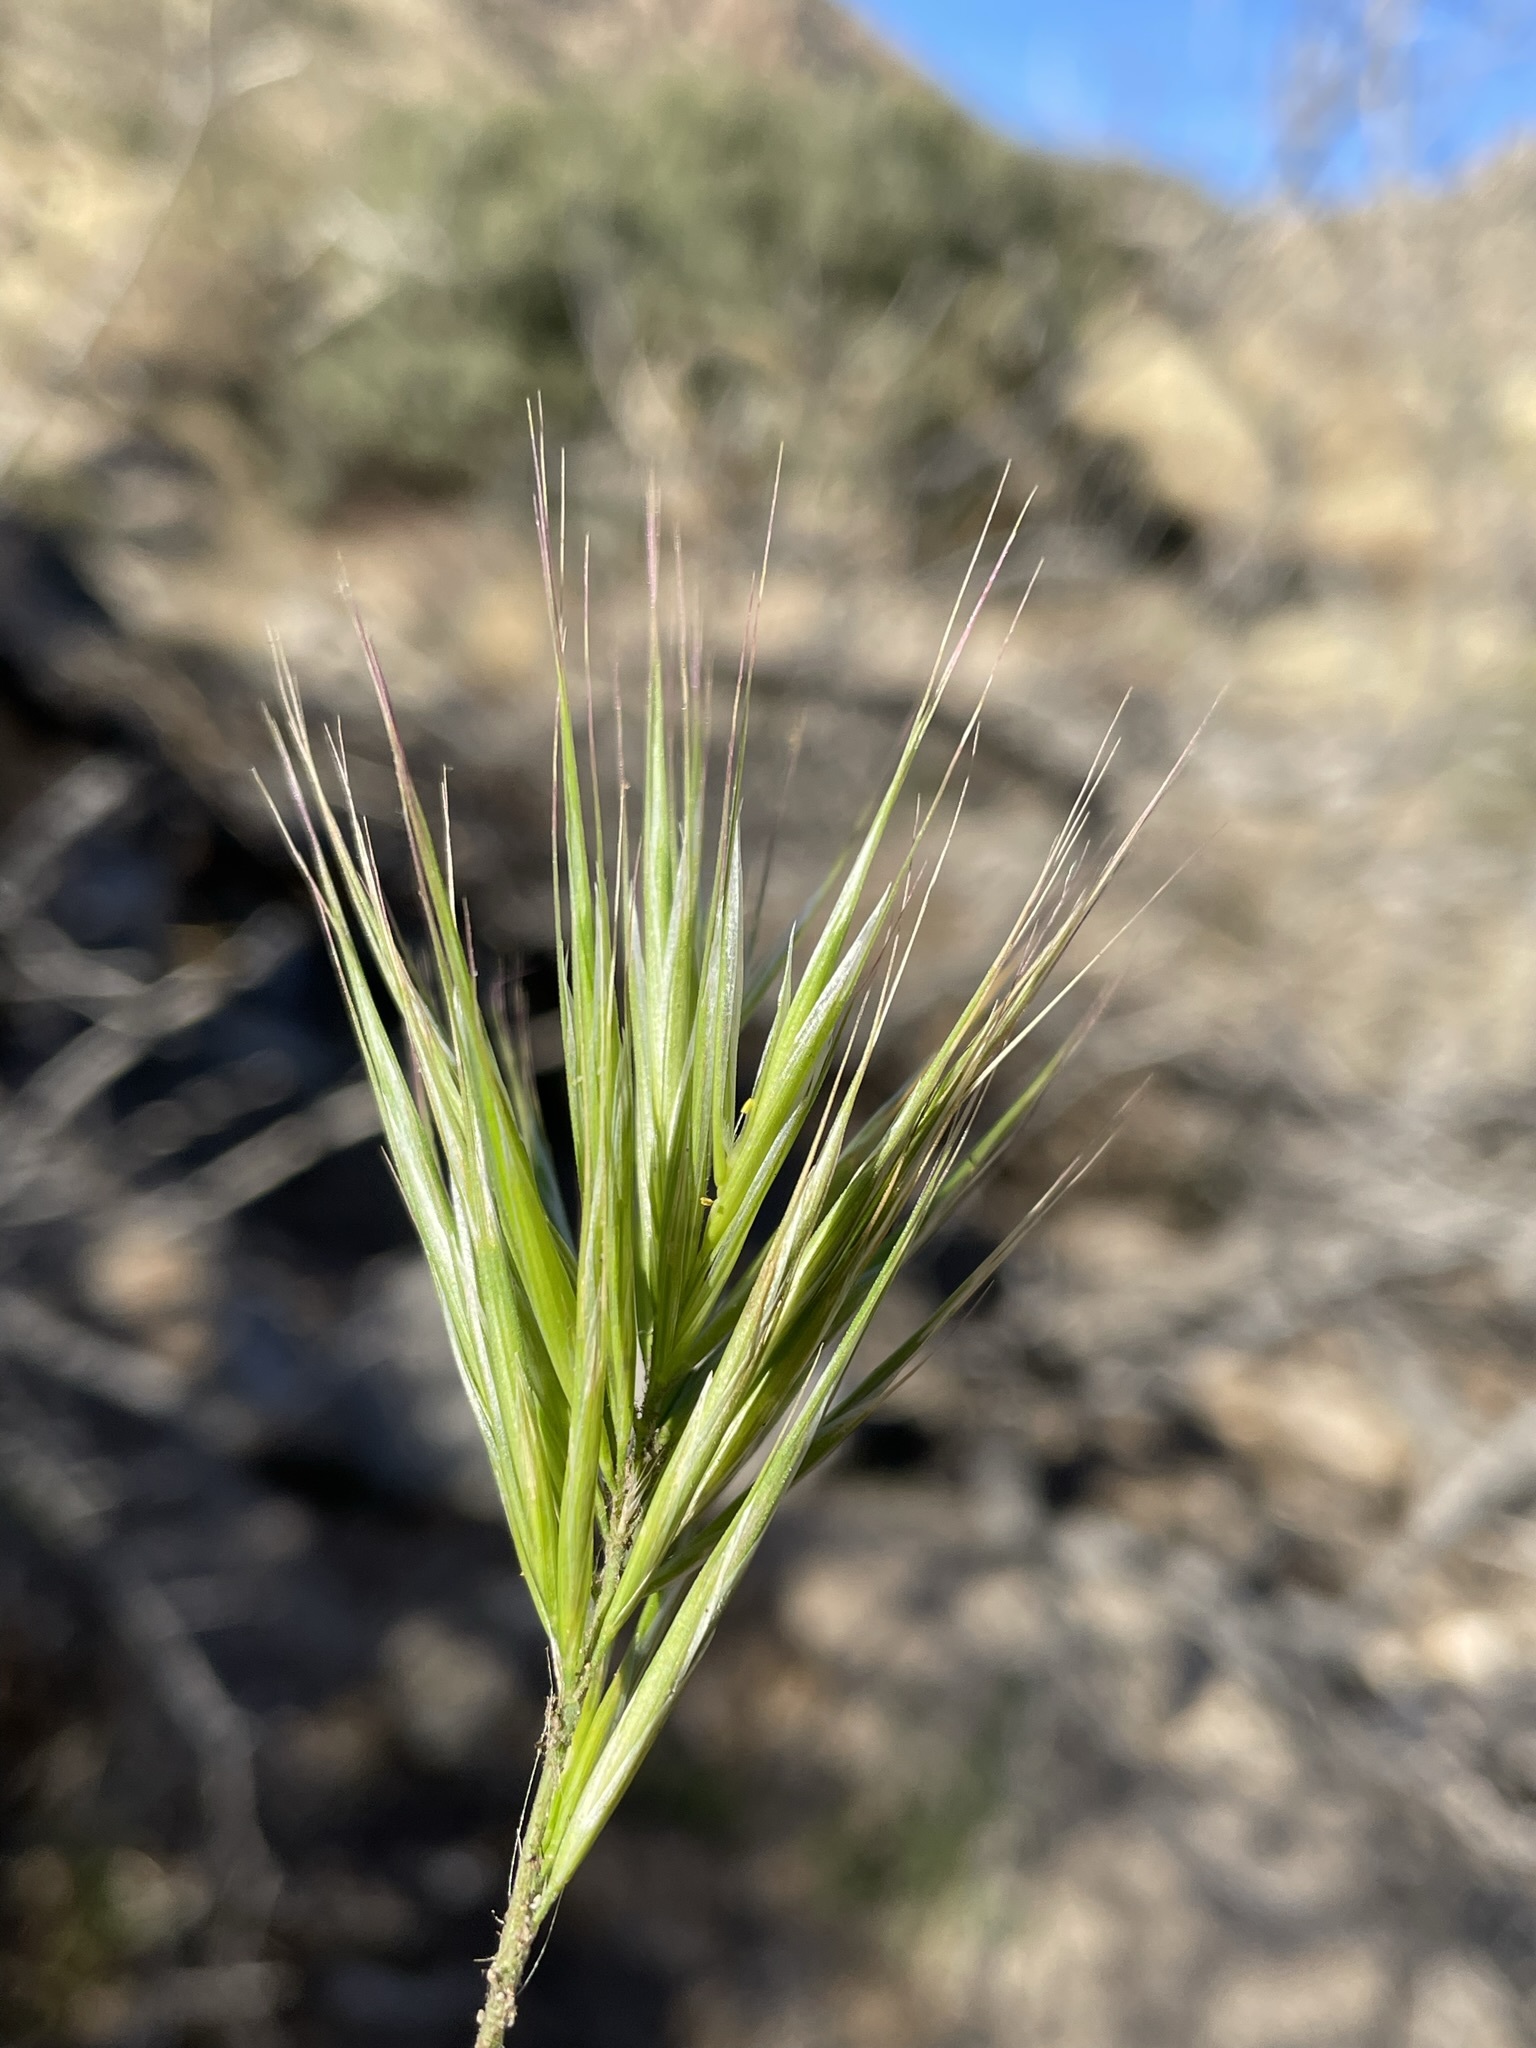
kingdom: Plantae
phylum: Tracheophyta
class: Liliopsida
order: Poales
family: Poaceae
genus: Bromus
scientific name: Bromus rubens
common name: Red brome
